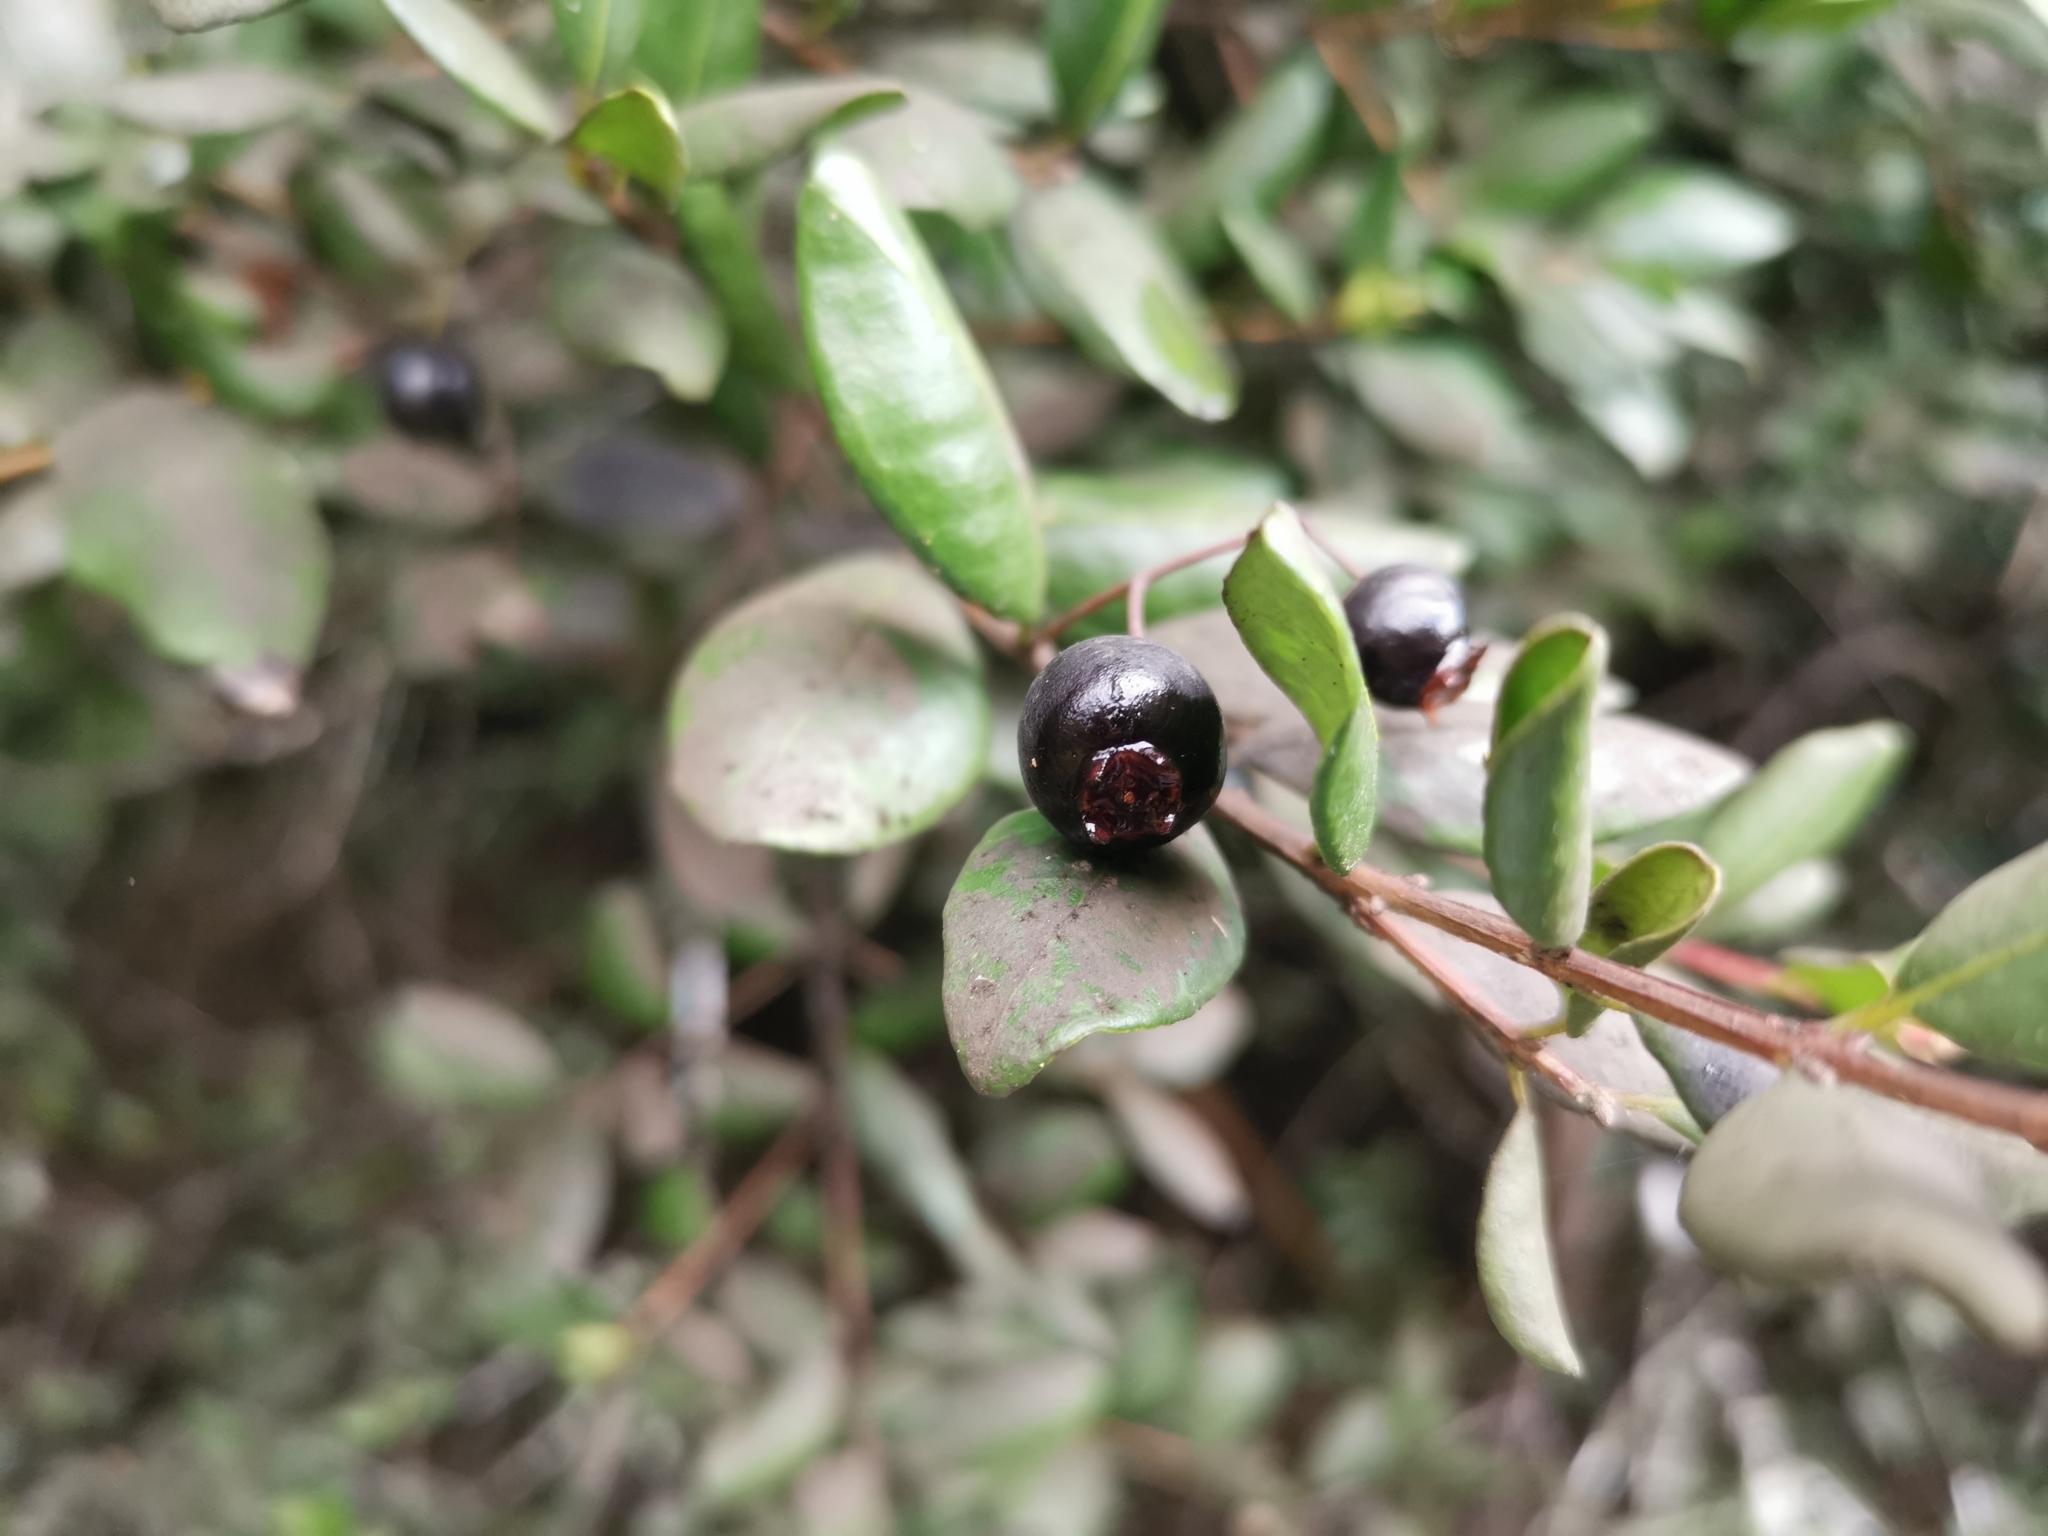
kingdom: Plantae
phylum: Tracheophyta
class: Magnoliopsida
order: Myrtales
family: Myrtaceae
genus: Blepharocalyx
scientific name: Blepharocalyx cruckshanksii
